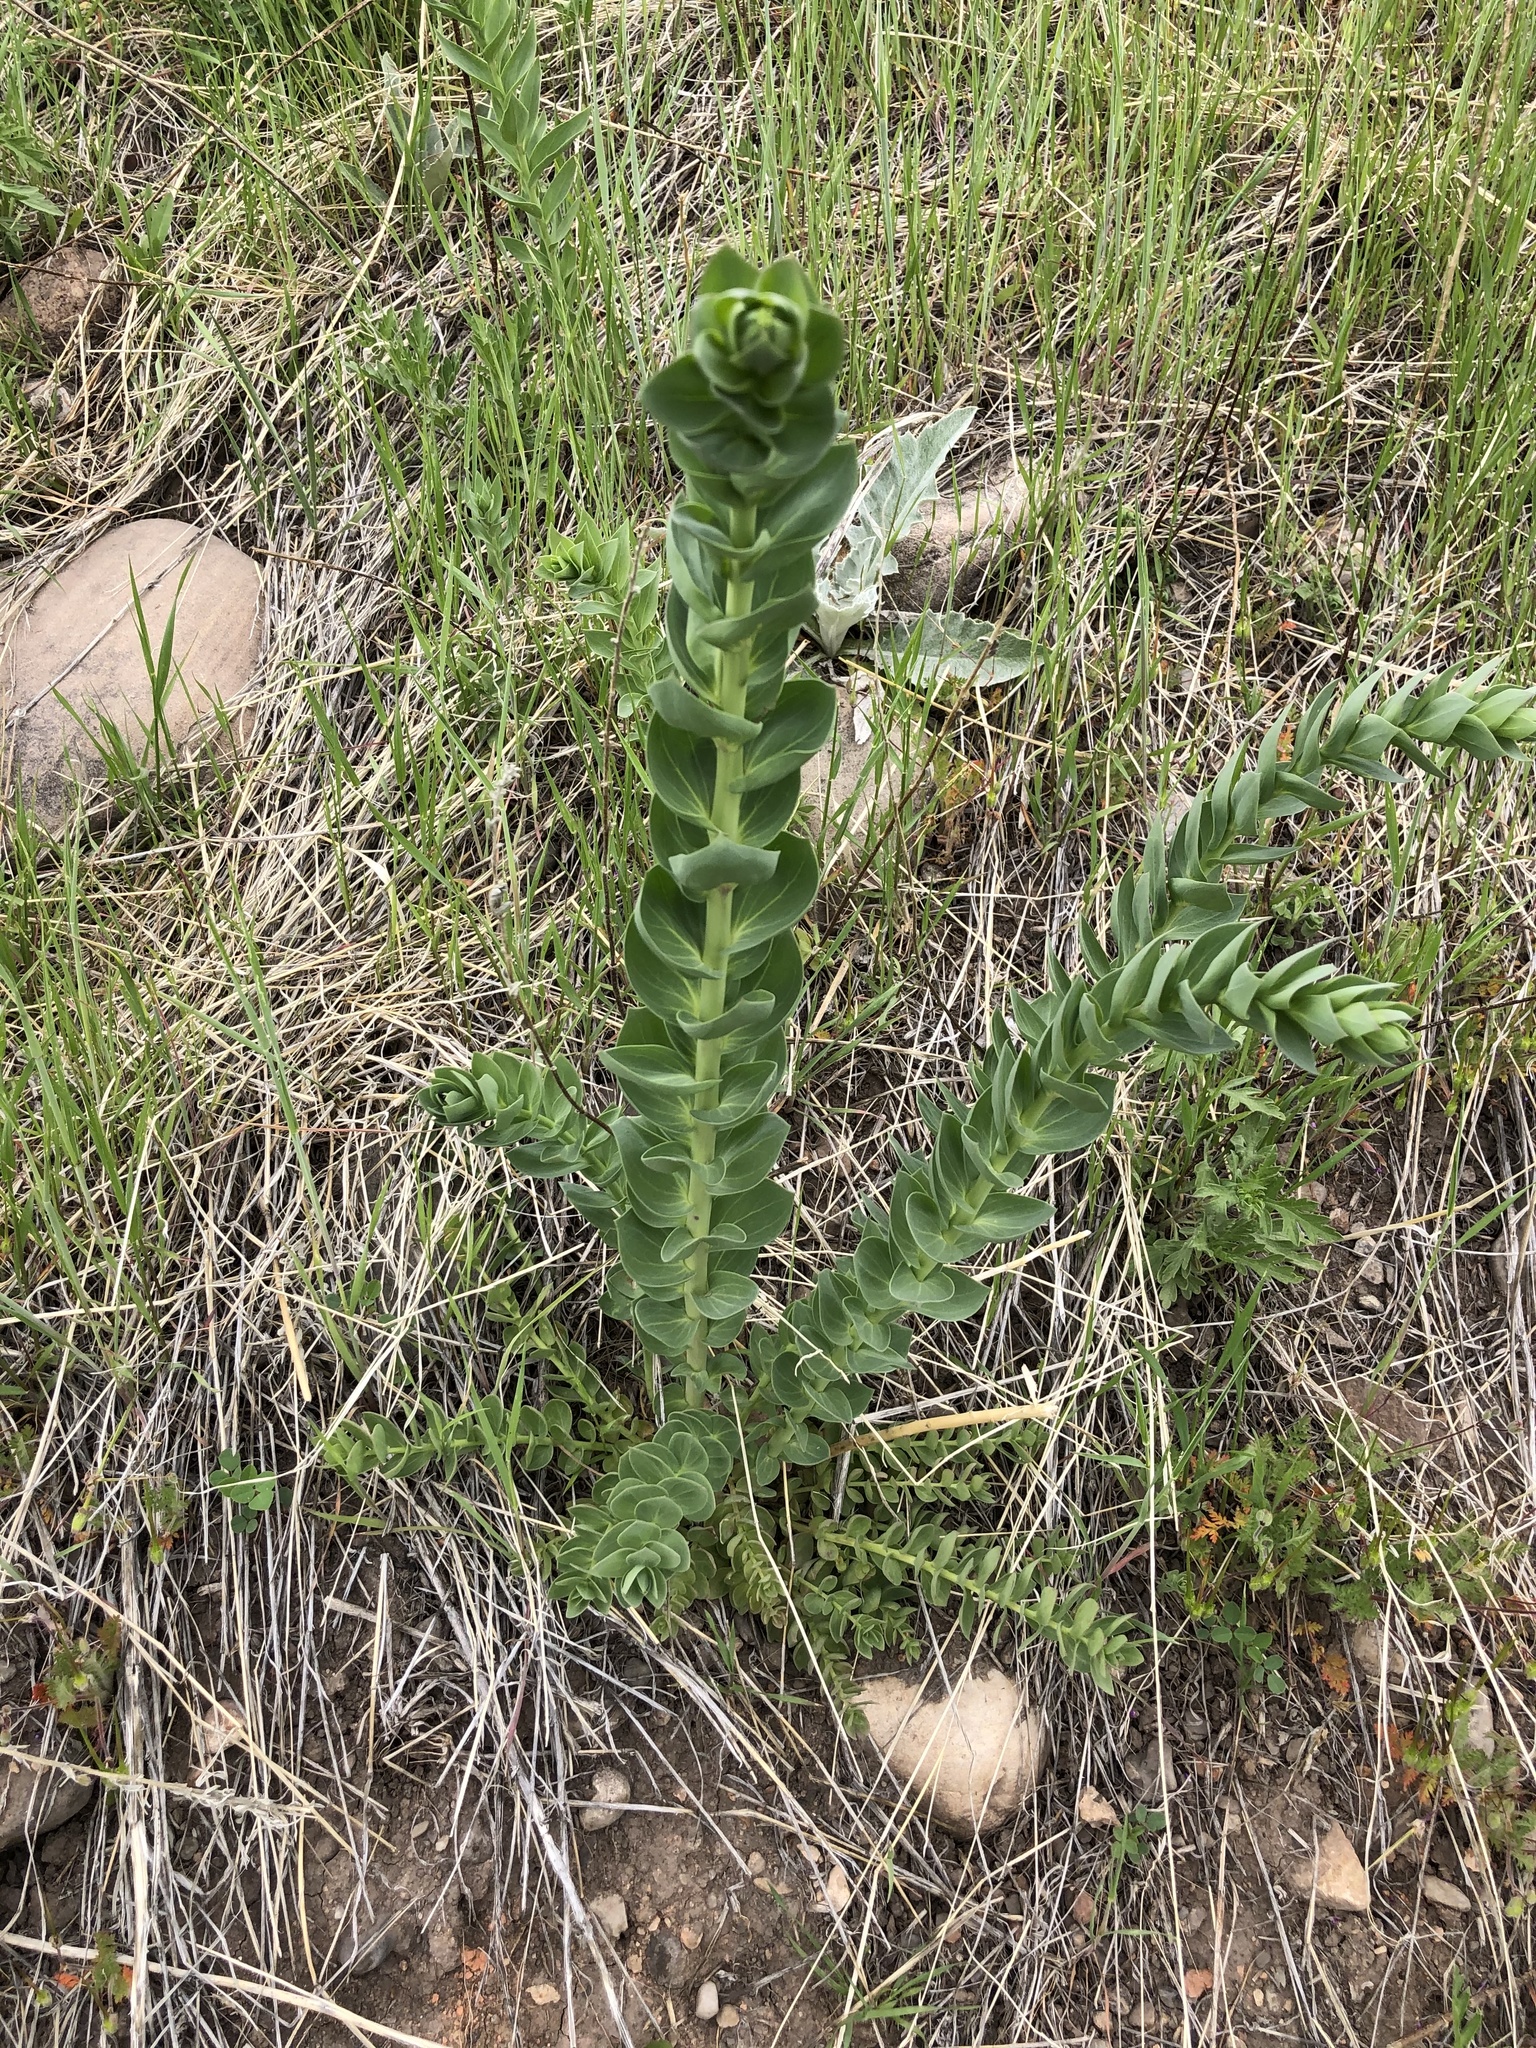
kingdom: Plantae
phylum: Tracheophyta
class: Magnoliopsida
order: Lamiales
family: Plantaginaceae
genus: Linaria
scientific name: Linaria dalmatica
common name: Dalmatian toadflax
